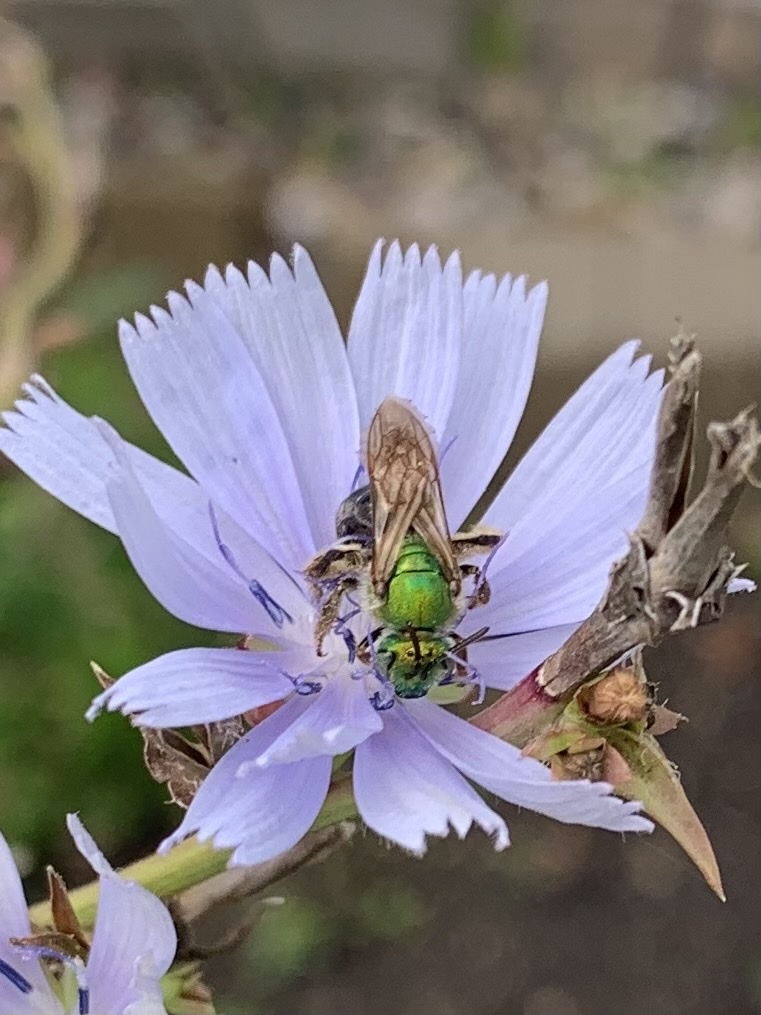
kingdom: Animalia
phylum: Arthropoda
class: Insecta
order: Hymenoptera
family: Halictidae
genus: Agapostemon
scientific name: Agapostemon virescens
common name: Bicolored striped sweat bee
